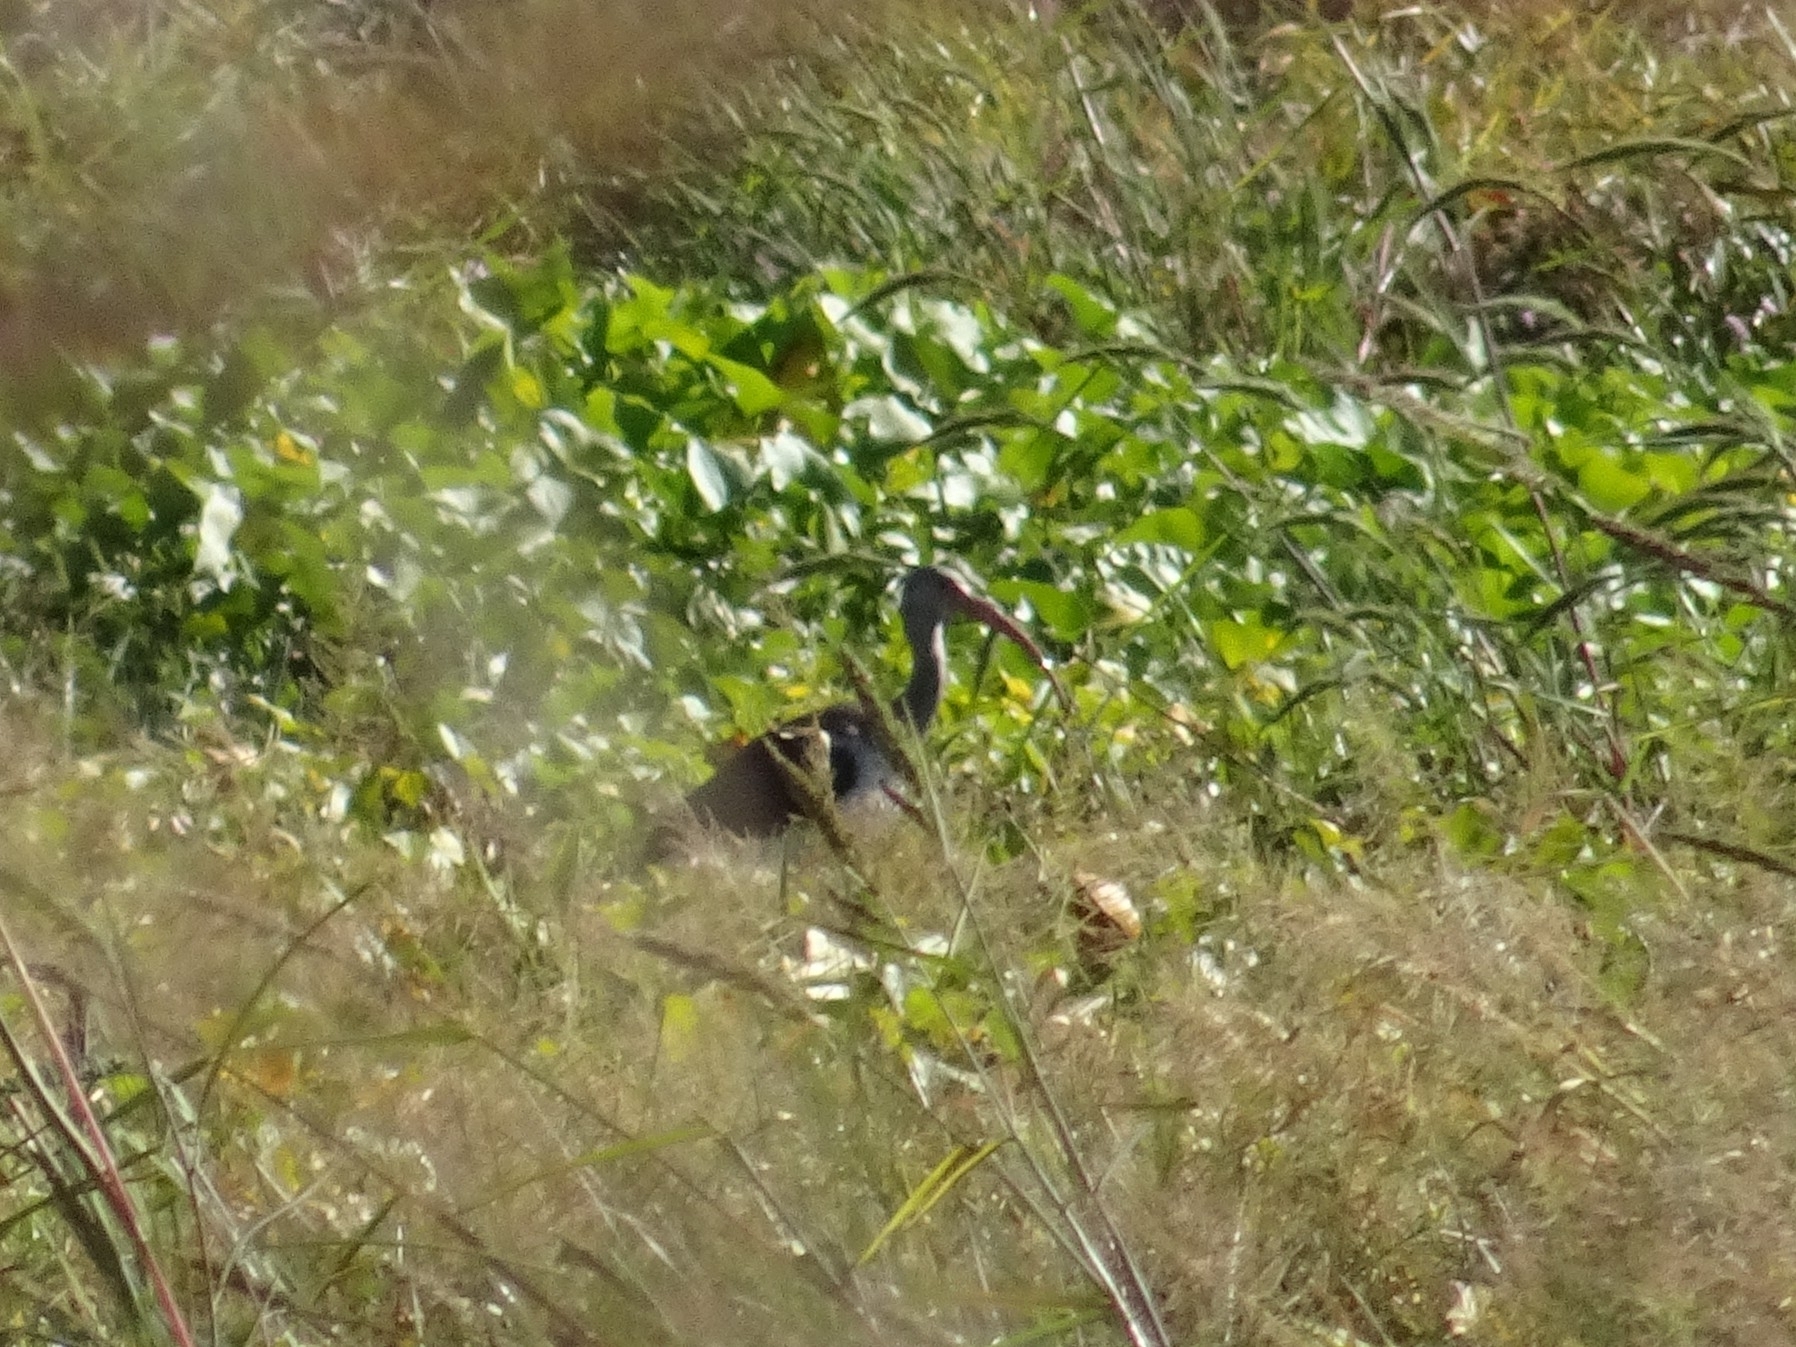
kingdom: Animalia
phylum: Chordata
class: Aves
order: Pelecaniformes
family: Threskiornithidae
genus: Eudocimus
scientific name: Eudocimus albus
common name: White ibis
